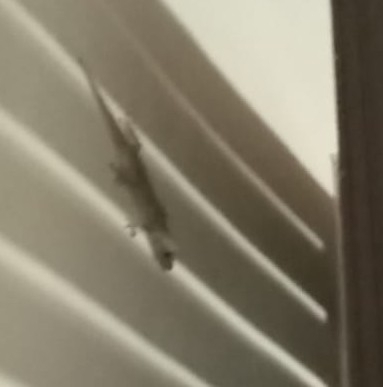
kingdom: Animalia
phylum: Chordata
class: Squamata
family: Phyllodactylidae
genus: Tarentola
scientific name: Tarentola mauritanica
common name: Moorish gecko
